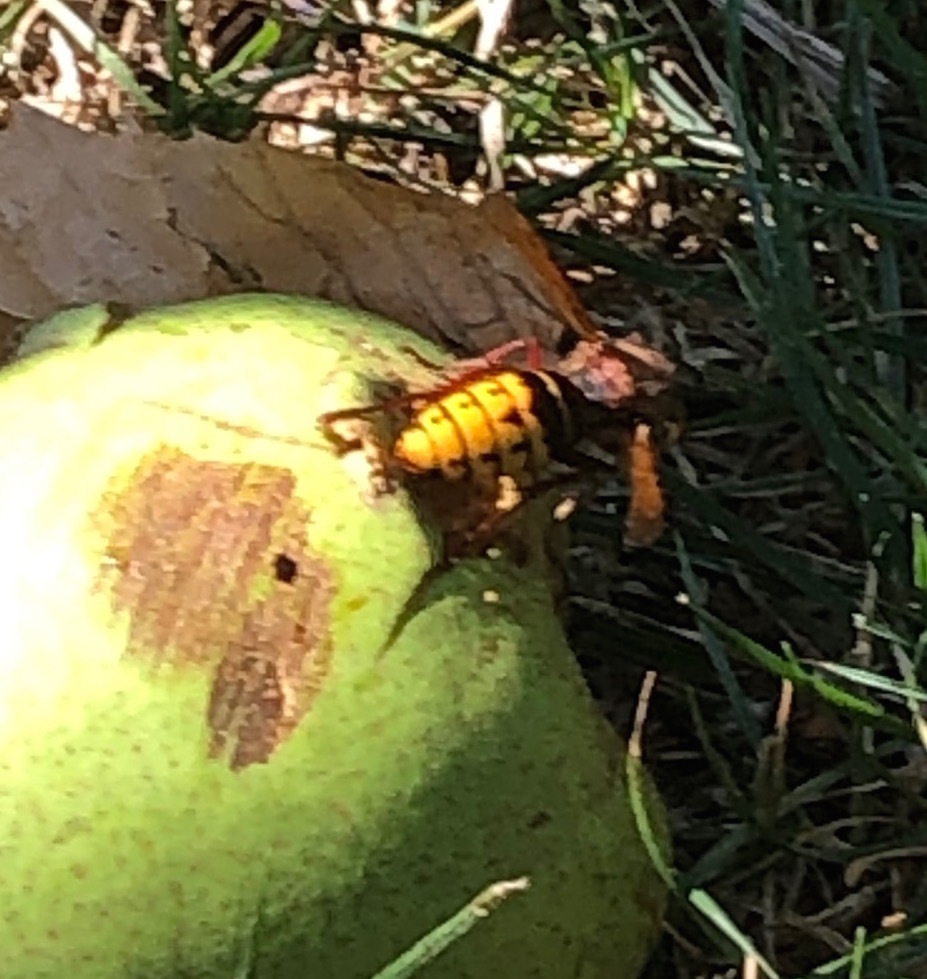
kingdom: Animalia
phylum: Arthropoda
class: Insecta
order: Hymenoptera
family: Vespidae
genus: Vespa
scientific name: Vespa crabro
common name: Hornet
